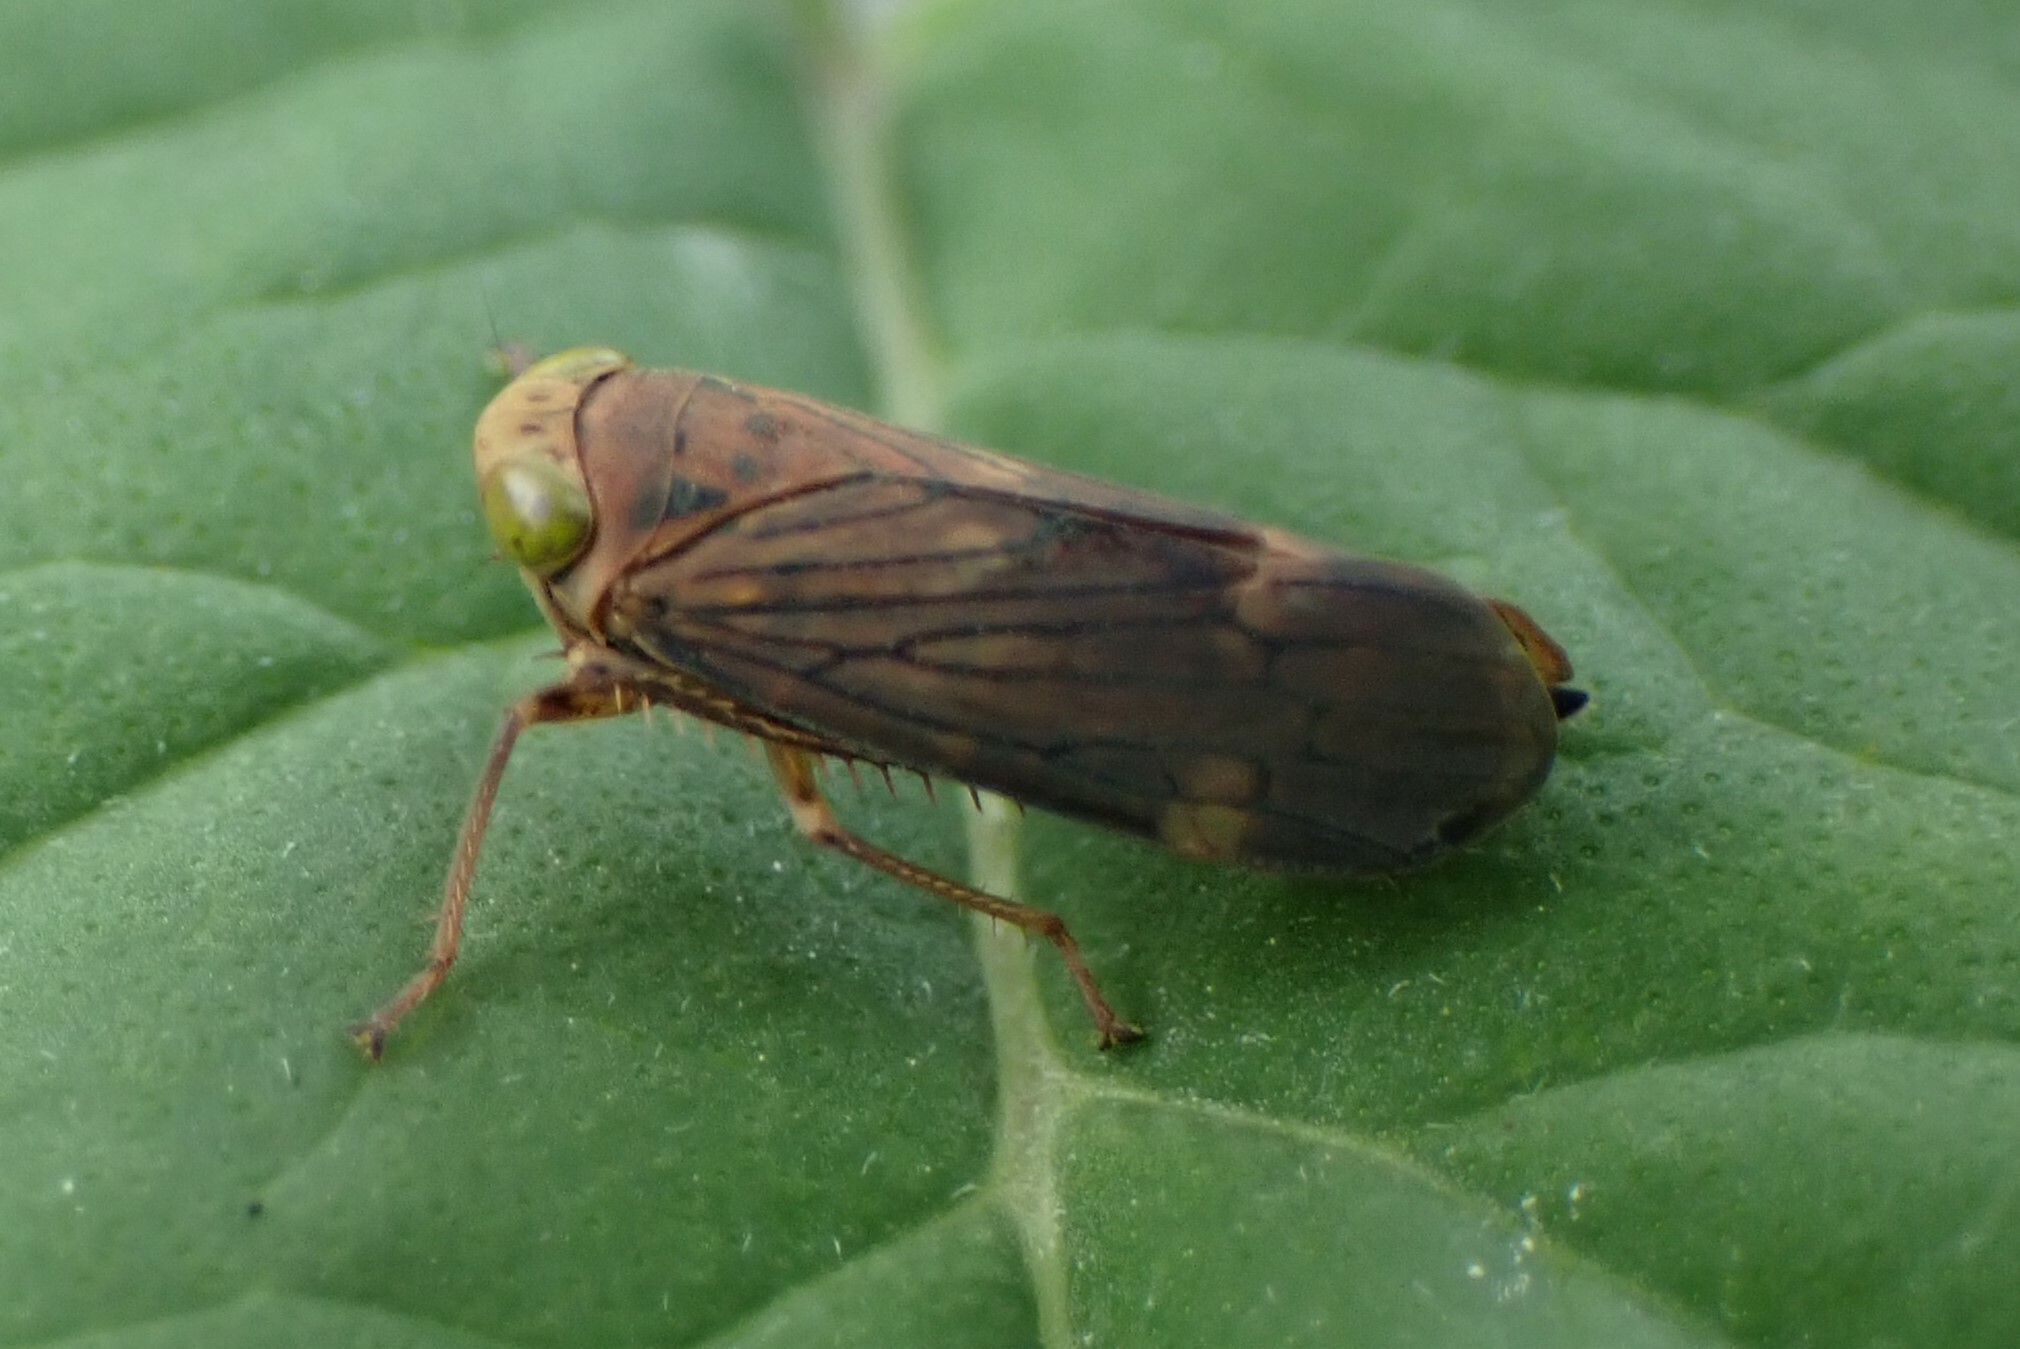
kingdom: Animalia
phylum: Arthropoda
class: Insecta
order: Hemiptera
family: Cicadellidae
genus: Jikradia
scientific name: Jikradia olitoria
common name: Coppery leafhopper
